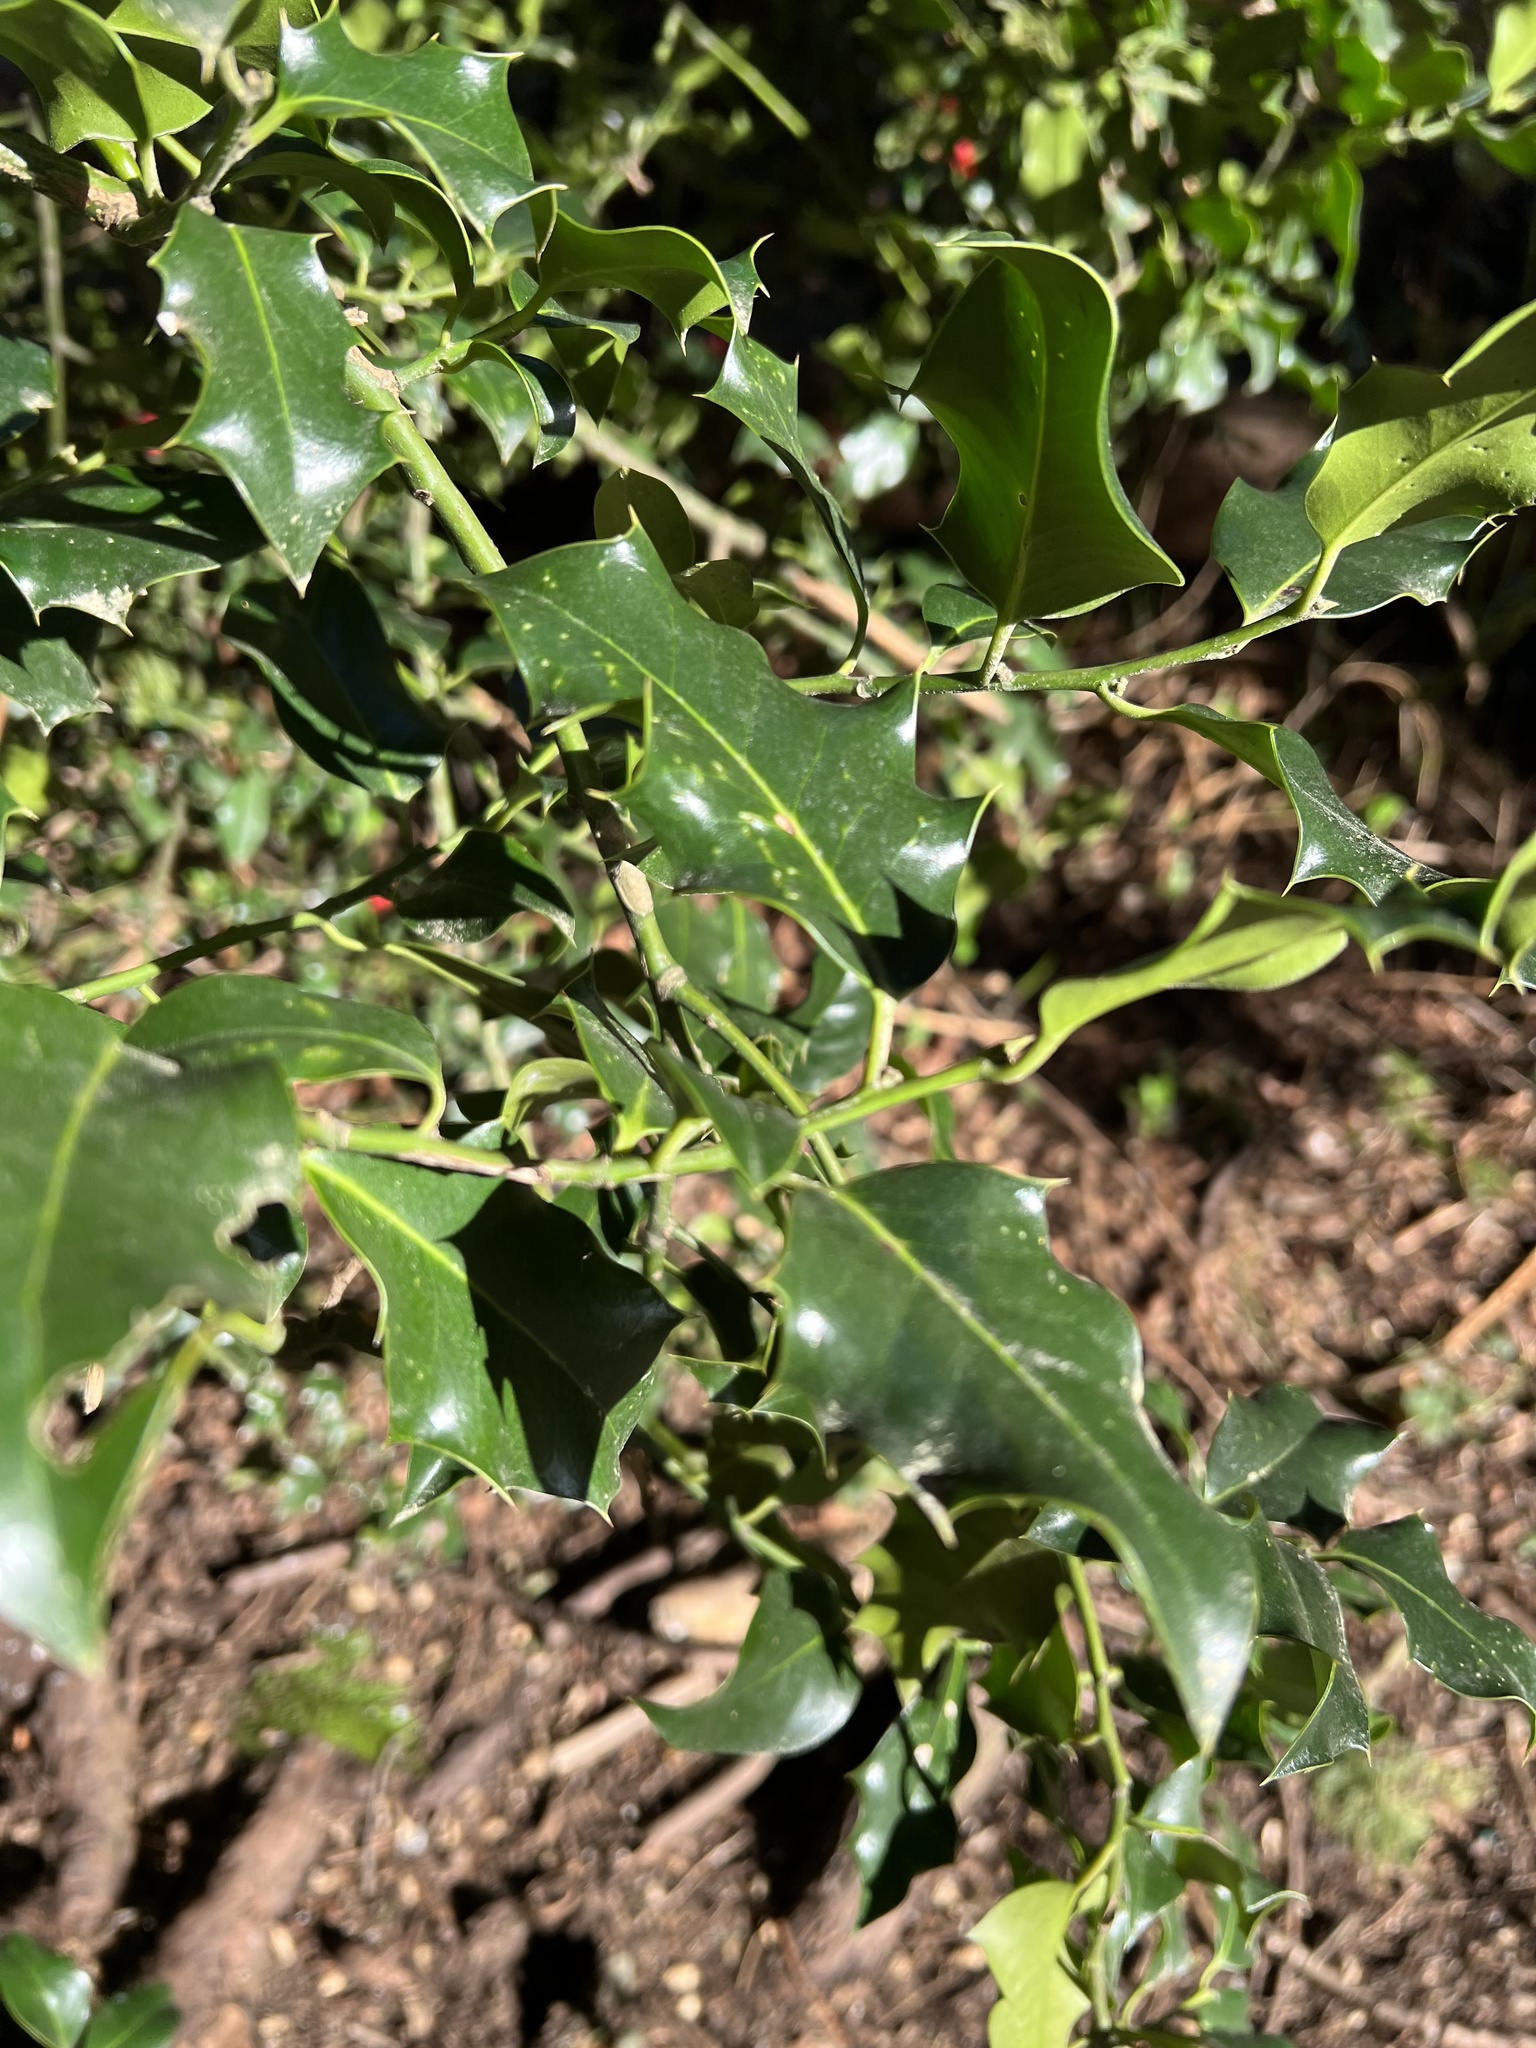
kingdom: Plantae
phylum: Tracheophyta
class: Magnoliopsida
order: Aquifoliales
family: Aquifoliaceae
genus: Ilex
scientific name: Ilex aquifolium
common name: English holly
